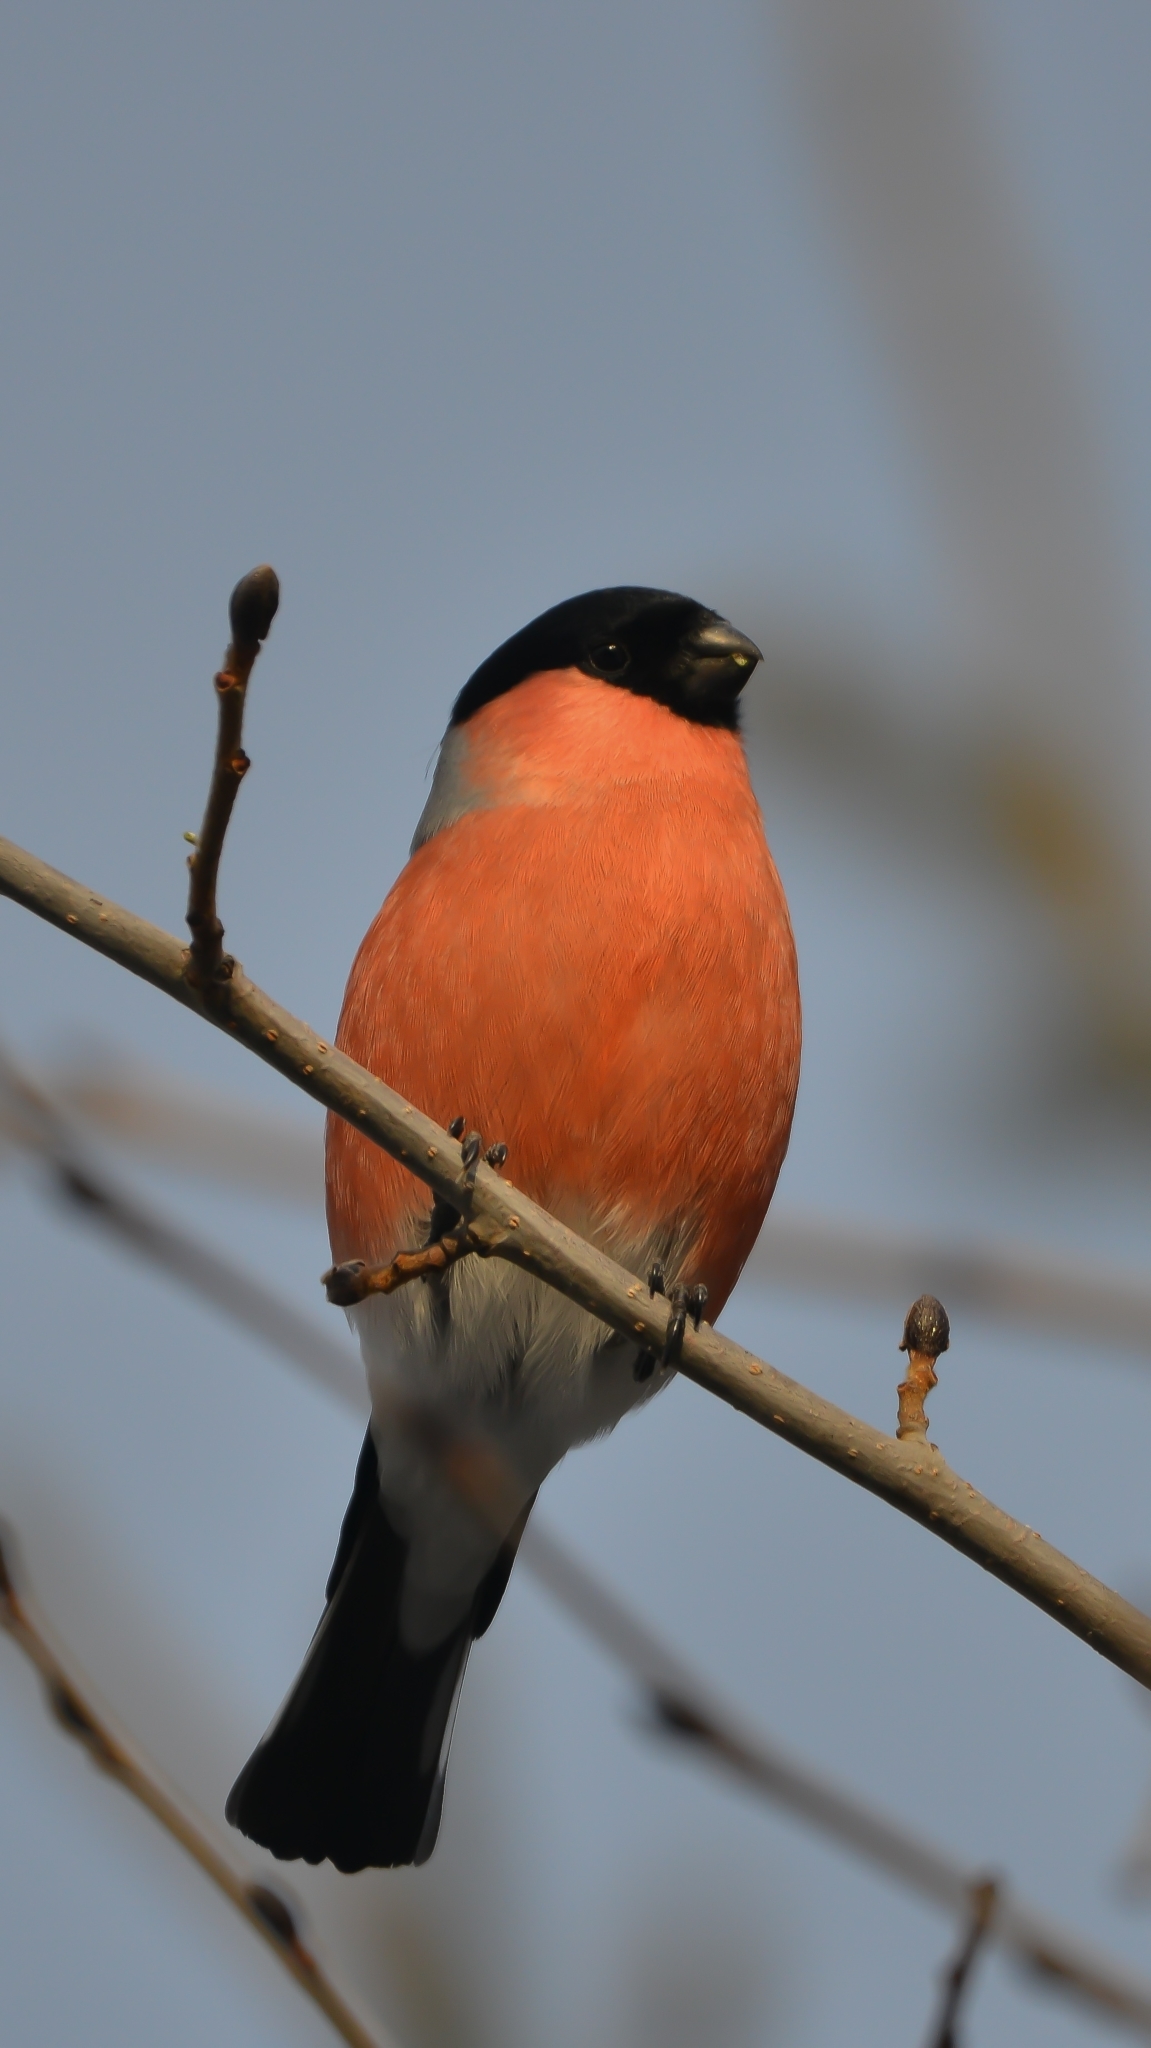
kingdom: Animalia
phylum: Chordata
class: Aves
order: Passeriformes
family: Fringillidae
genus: Pyrrhula
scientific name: Pyrrhula pyrrhula
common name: Eurasian bullfinch
